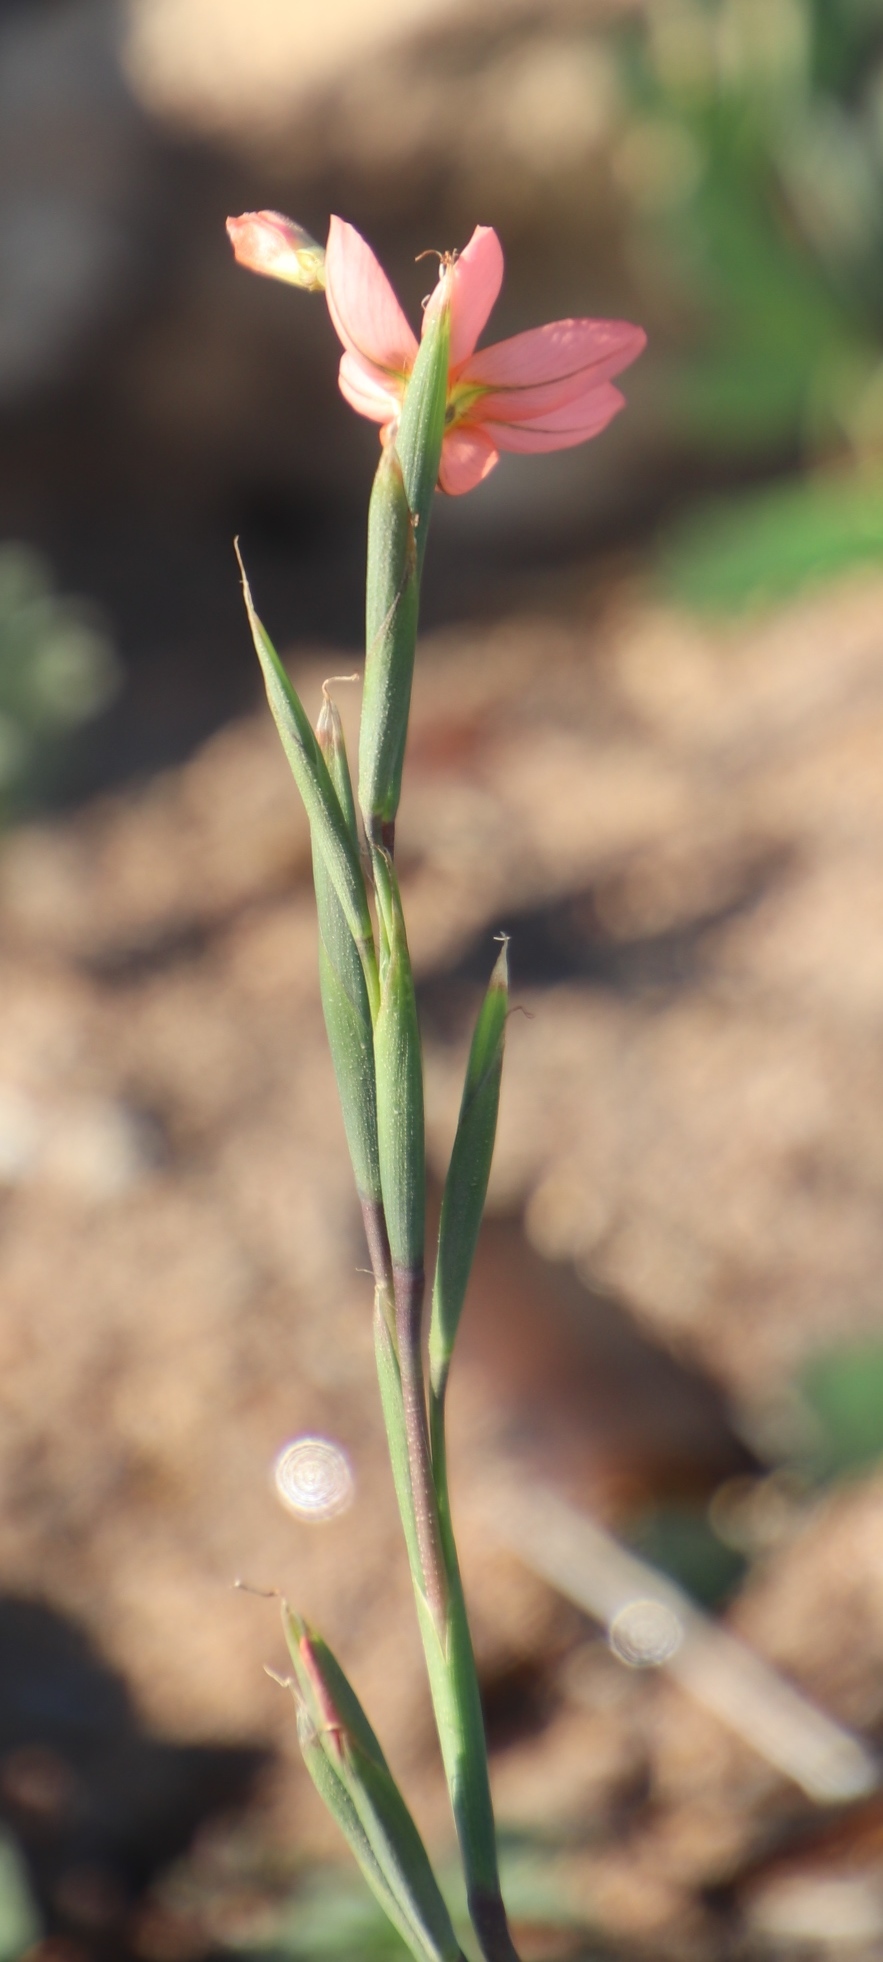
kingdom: Plantae
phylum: Tracheophyta
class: Liliopsida
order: Asparagales
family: Iridaceae
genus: Moraea
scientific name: Moraea miniata
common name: Two-leaf cape-tulip
